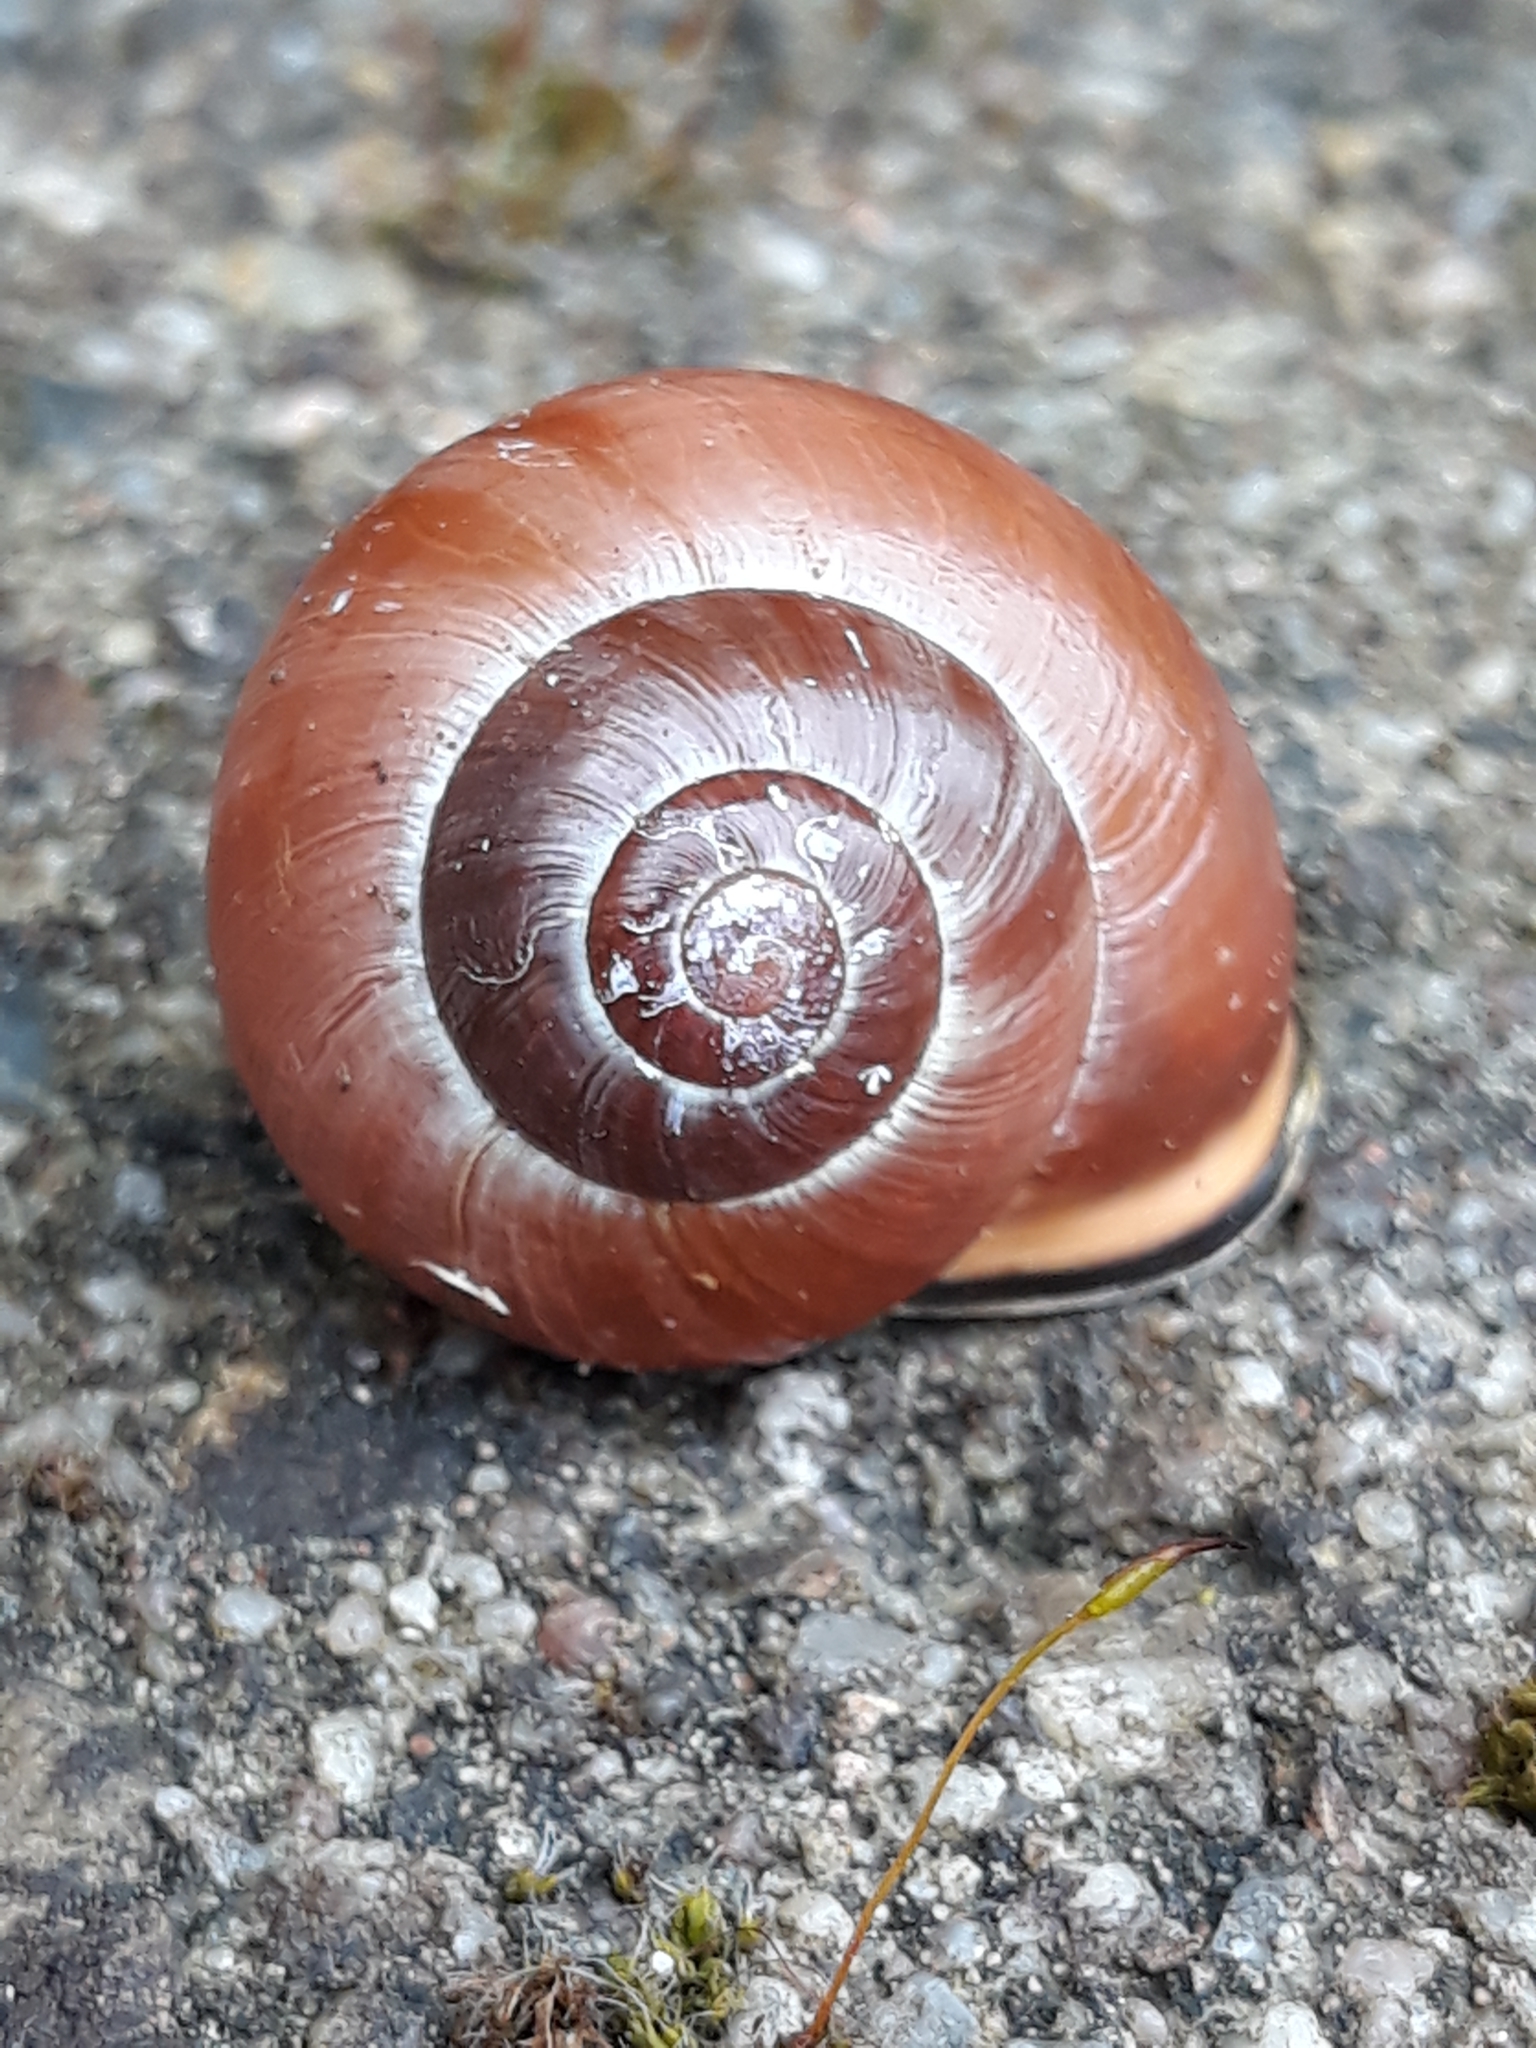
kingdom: Animalia
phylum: Mollusca
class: Gastropoda
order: Stylommatophora
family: Helicidae
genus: Cepaea
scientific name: Cepaea nemoralis
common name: Grovesnail
